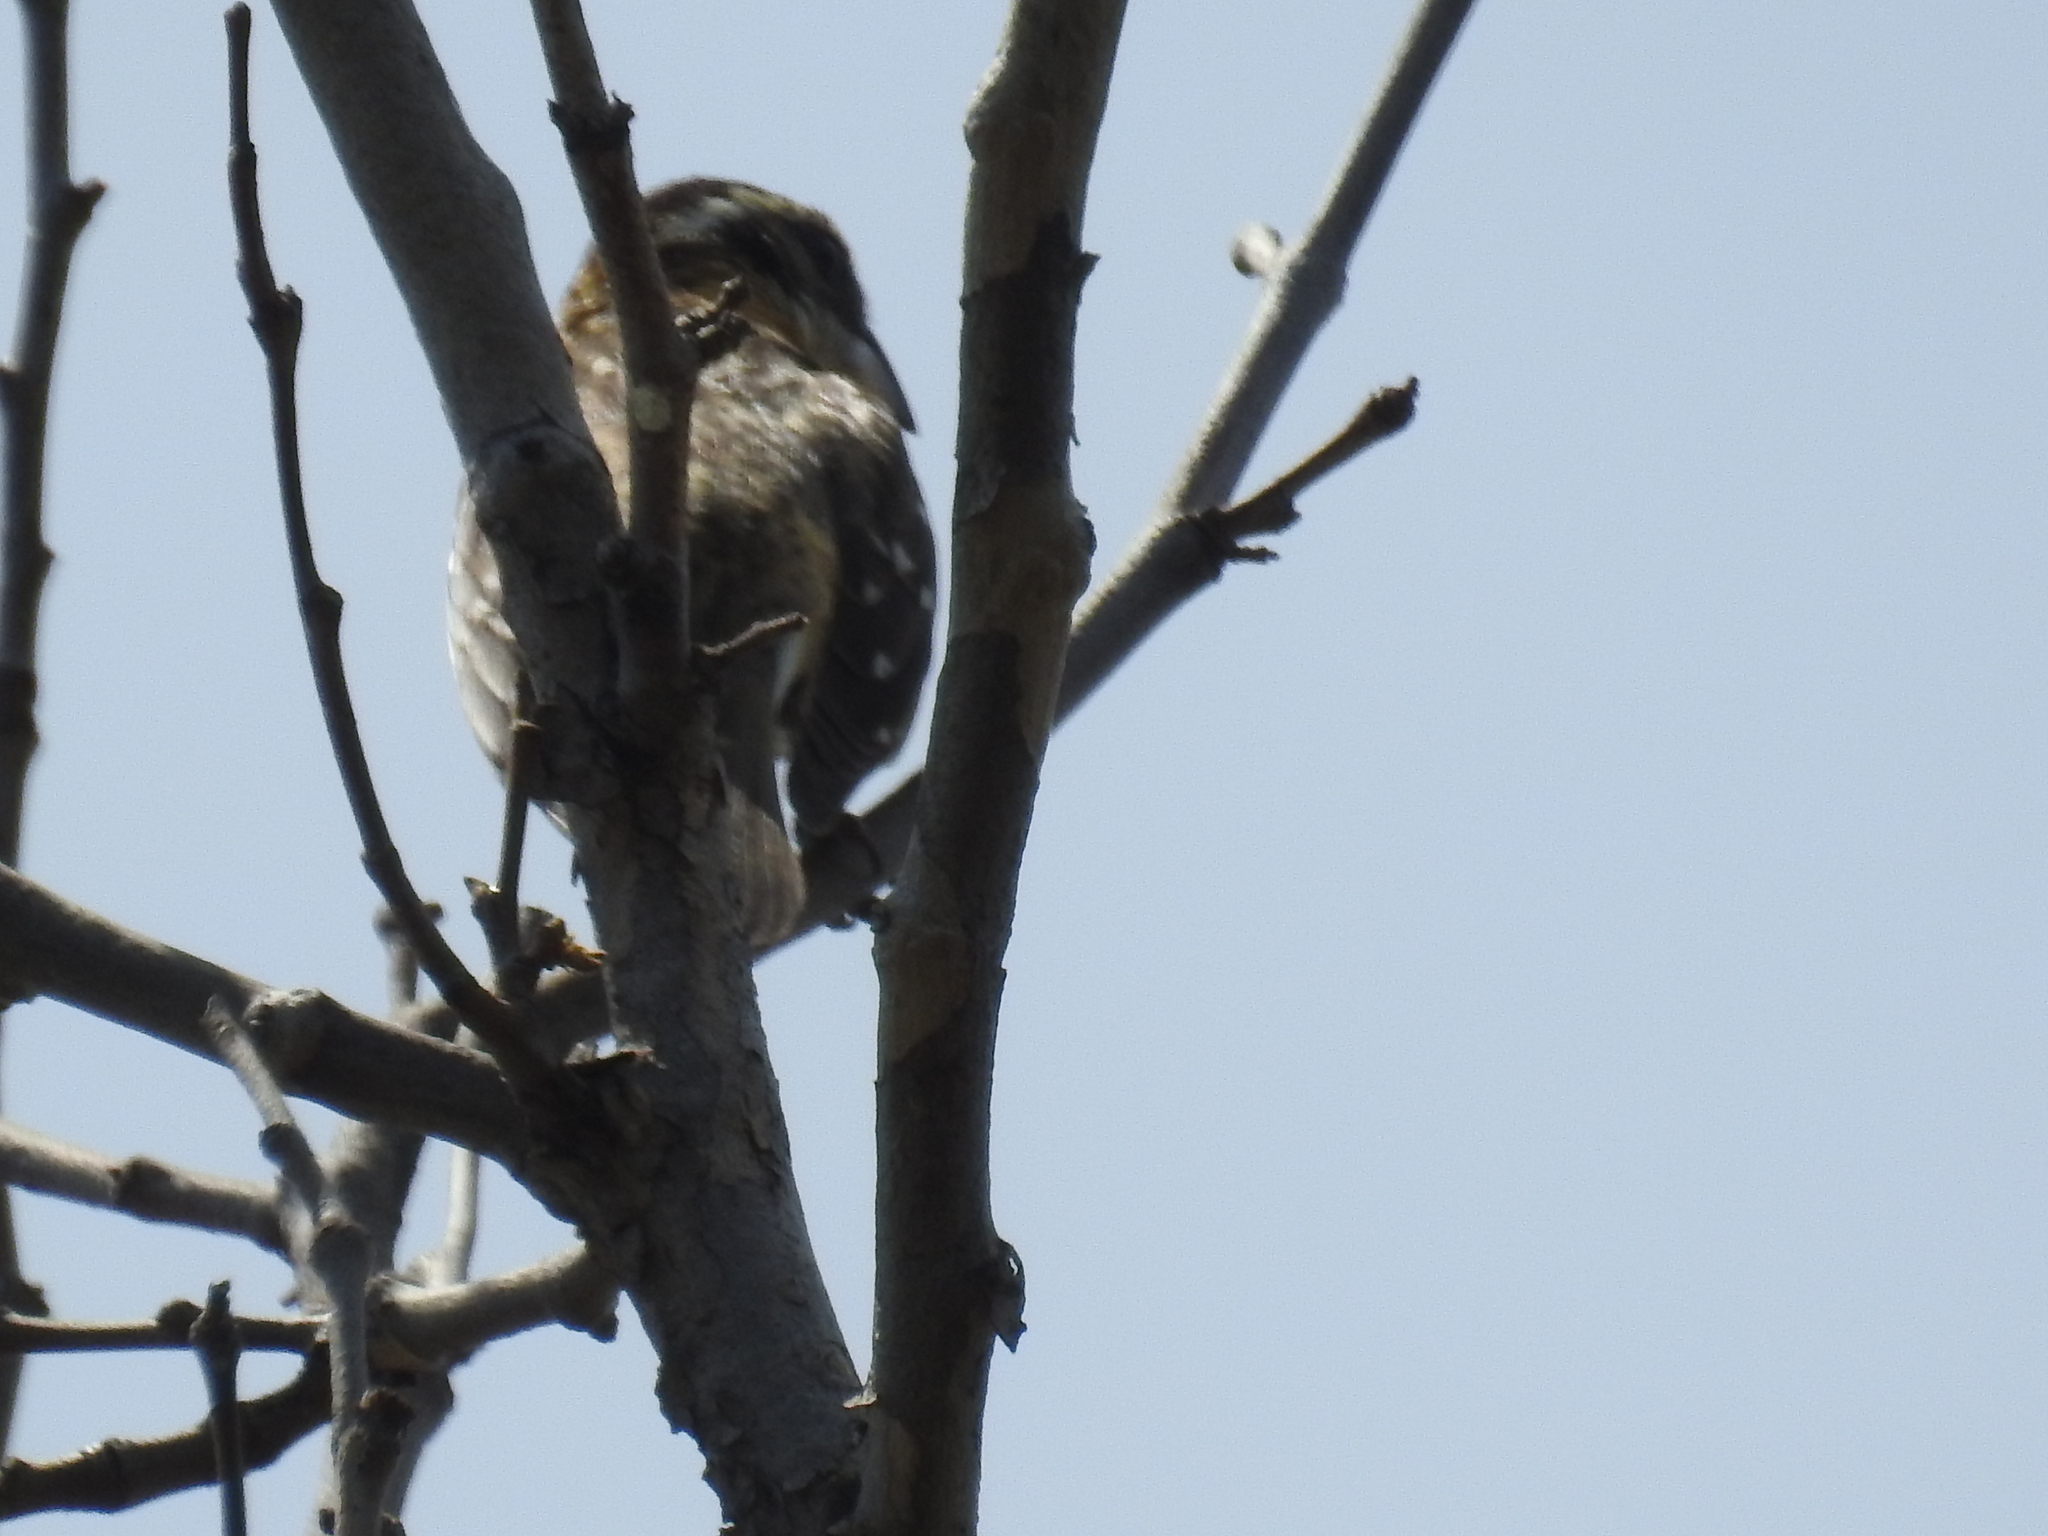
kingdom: Animalia
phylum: Chordata
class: Aves
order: Passeriformes
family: Cardinalidae
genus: Pheucticus
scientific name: Pheucticus melanocephalus
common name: Black-headed grosbeak
